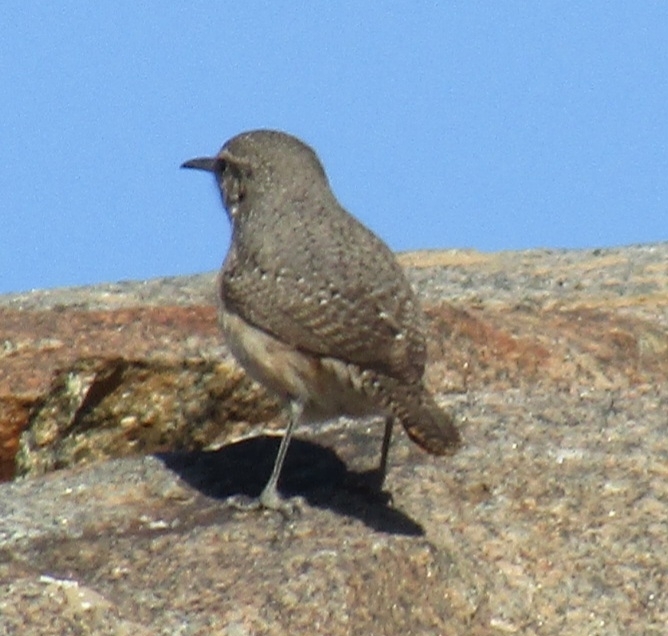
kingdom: Animalia
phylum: Chordata
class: Aves
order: Passeriformes
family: Troglodytidae
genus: Salpinctes
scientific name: Salpinctes obsoletus
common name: Rock wren
